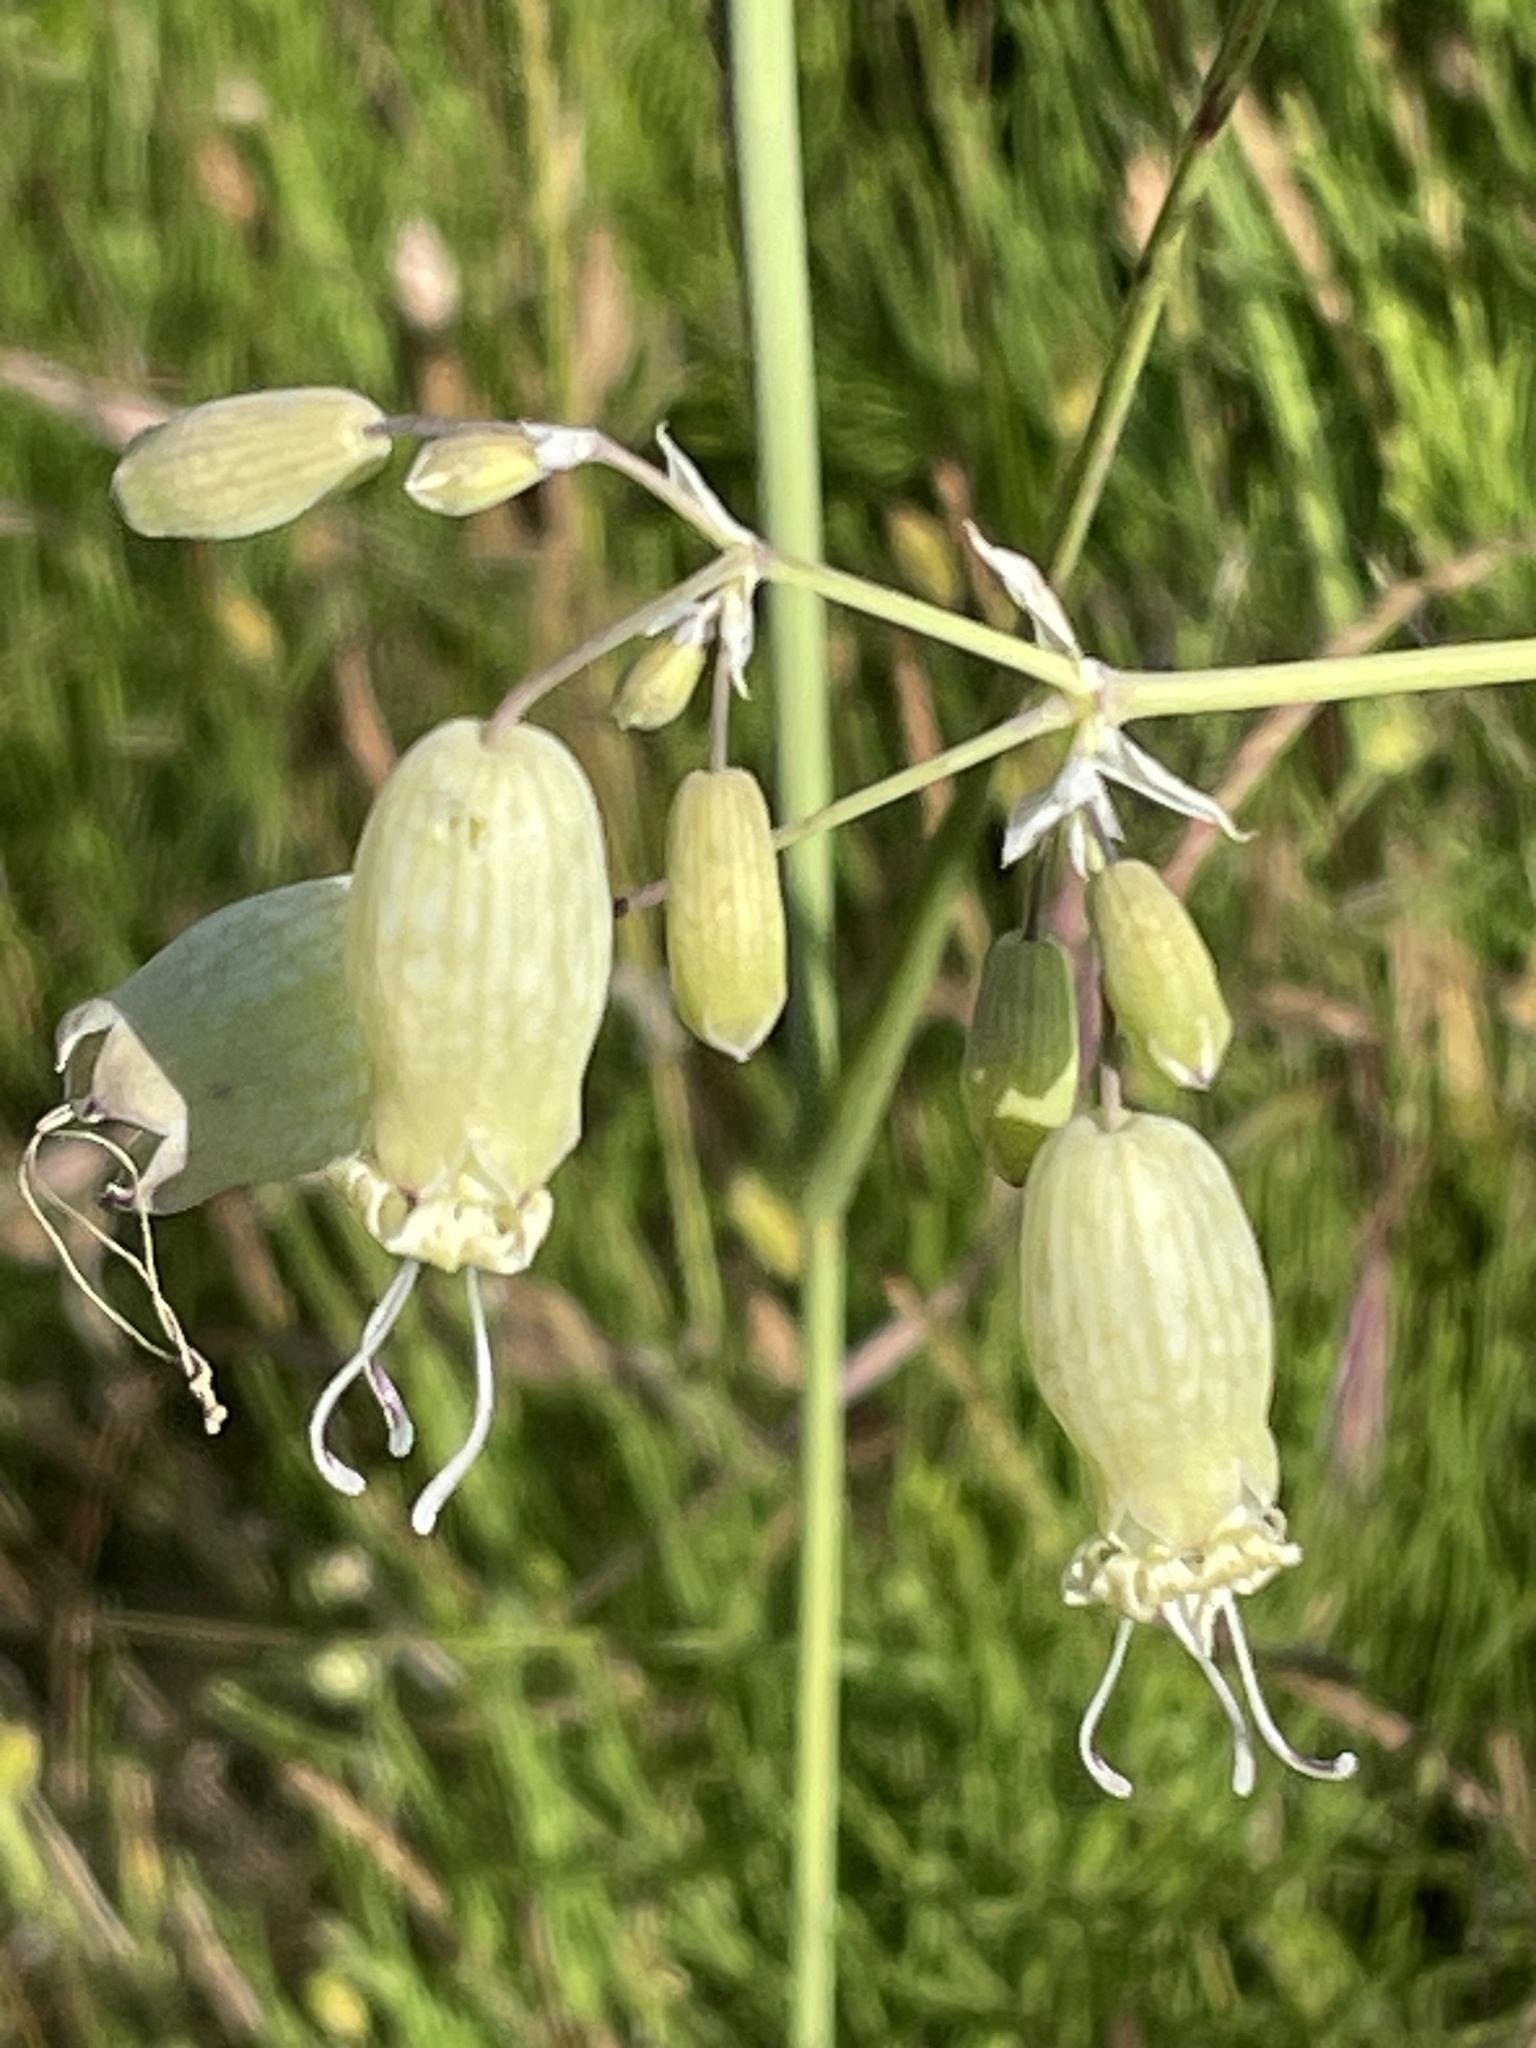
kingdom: Plantae
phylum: Tracheophyta
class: Magnoliopsida
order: Caryophyllales
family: Caryophyllaceae
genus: Silene
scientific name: Silene vulgaris
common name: Bladder campion
